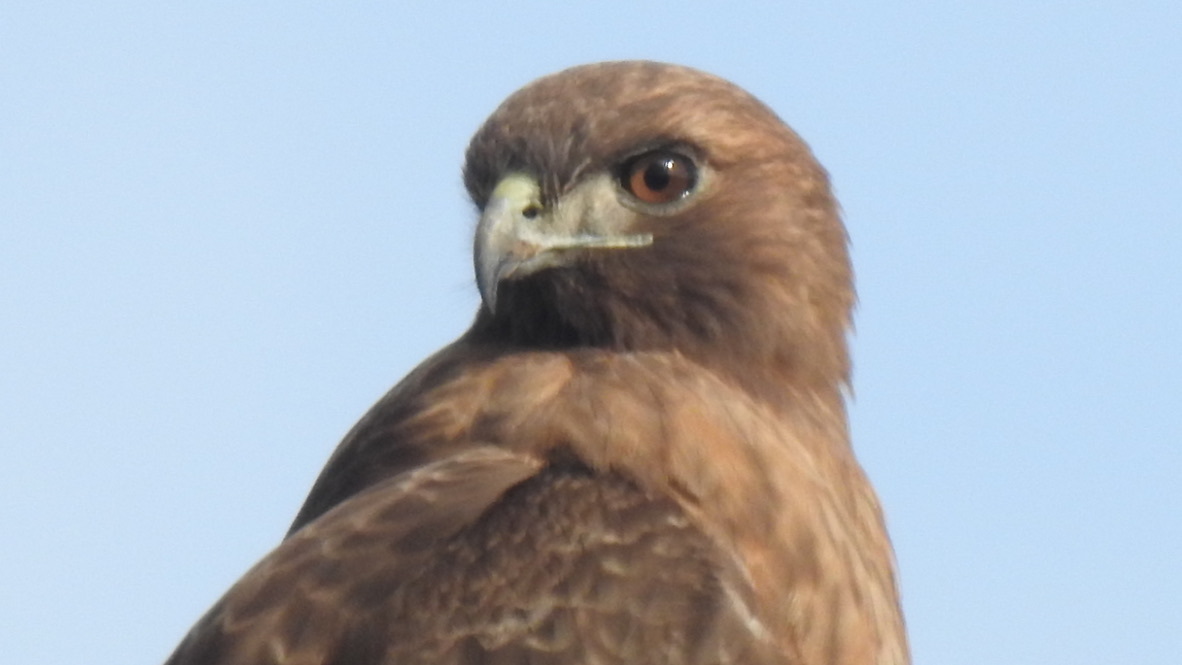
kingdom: Animalia
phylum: Chordata
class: Aves
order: Accipitriformes
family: Accipitridae
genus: Buteo
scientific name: Buteo jamaicensis
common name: Red-tailed hawk
